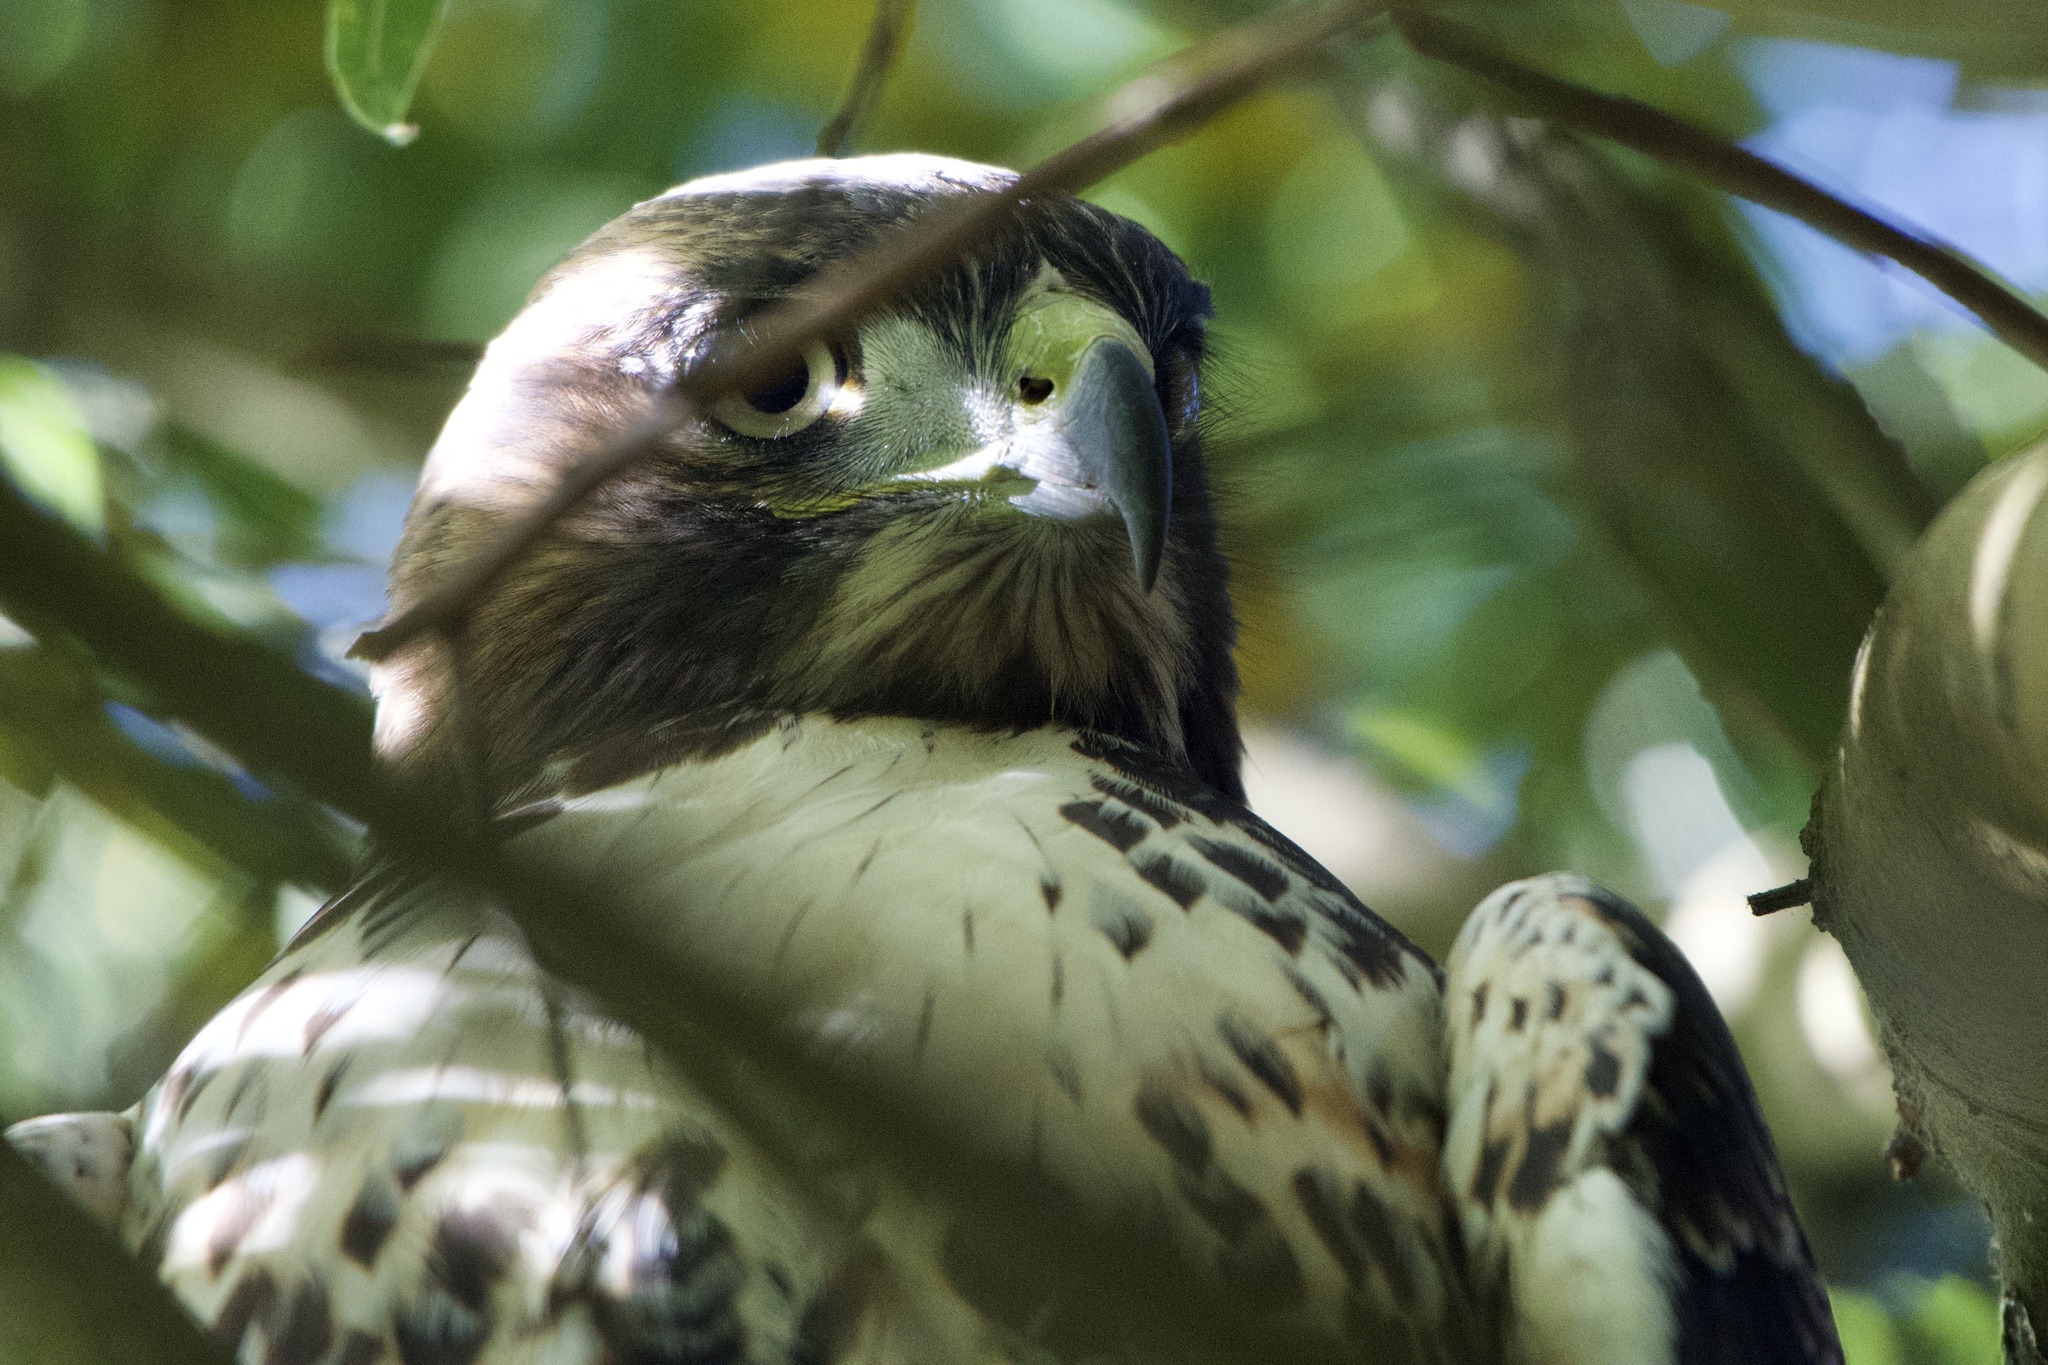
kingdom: Animalia
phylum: Chordata
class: Aves
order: Accipitriformes
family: Accipitridae
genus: Buteo
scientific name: Buteo jamaicensis
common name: Red-tailed hawk
